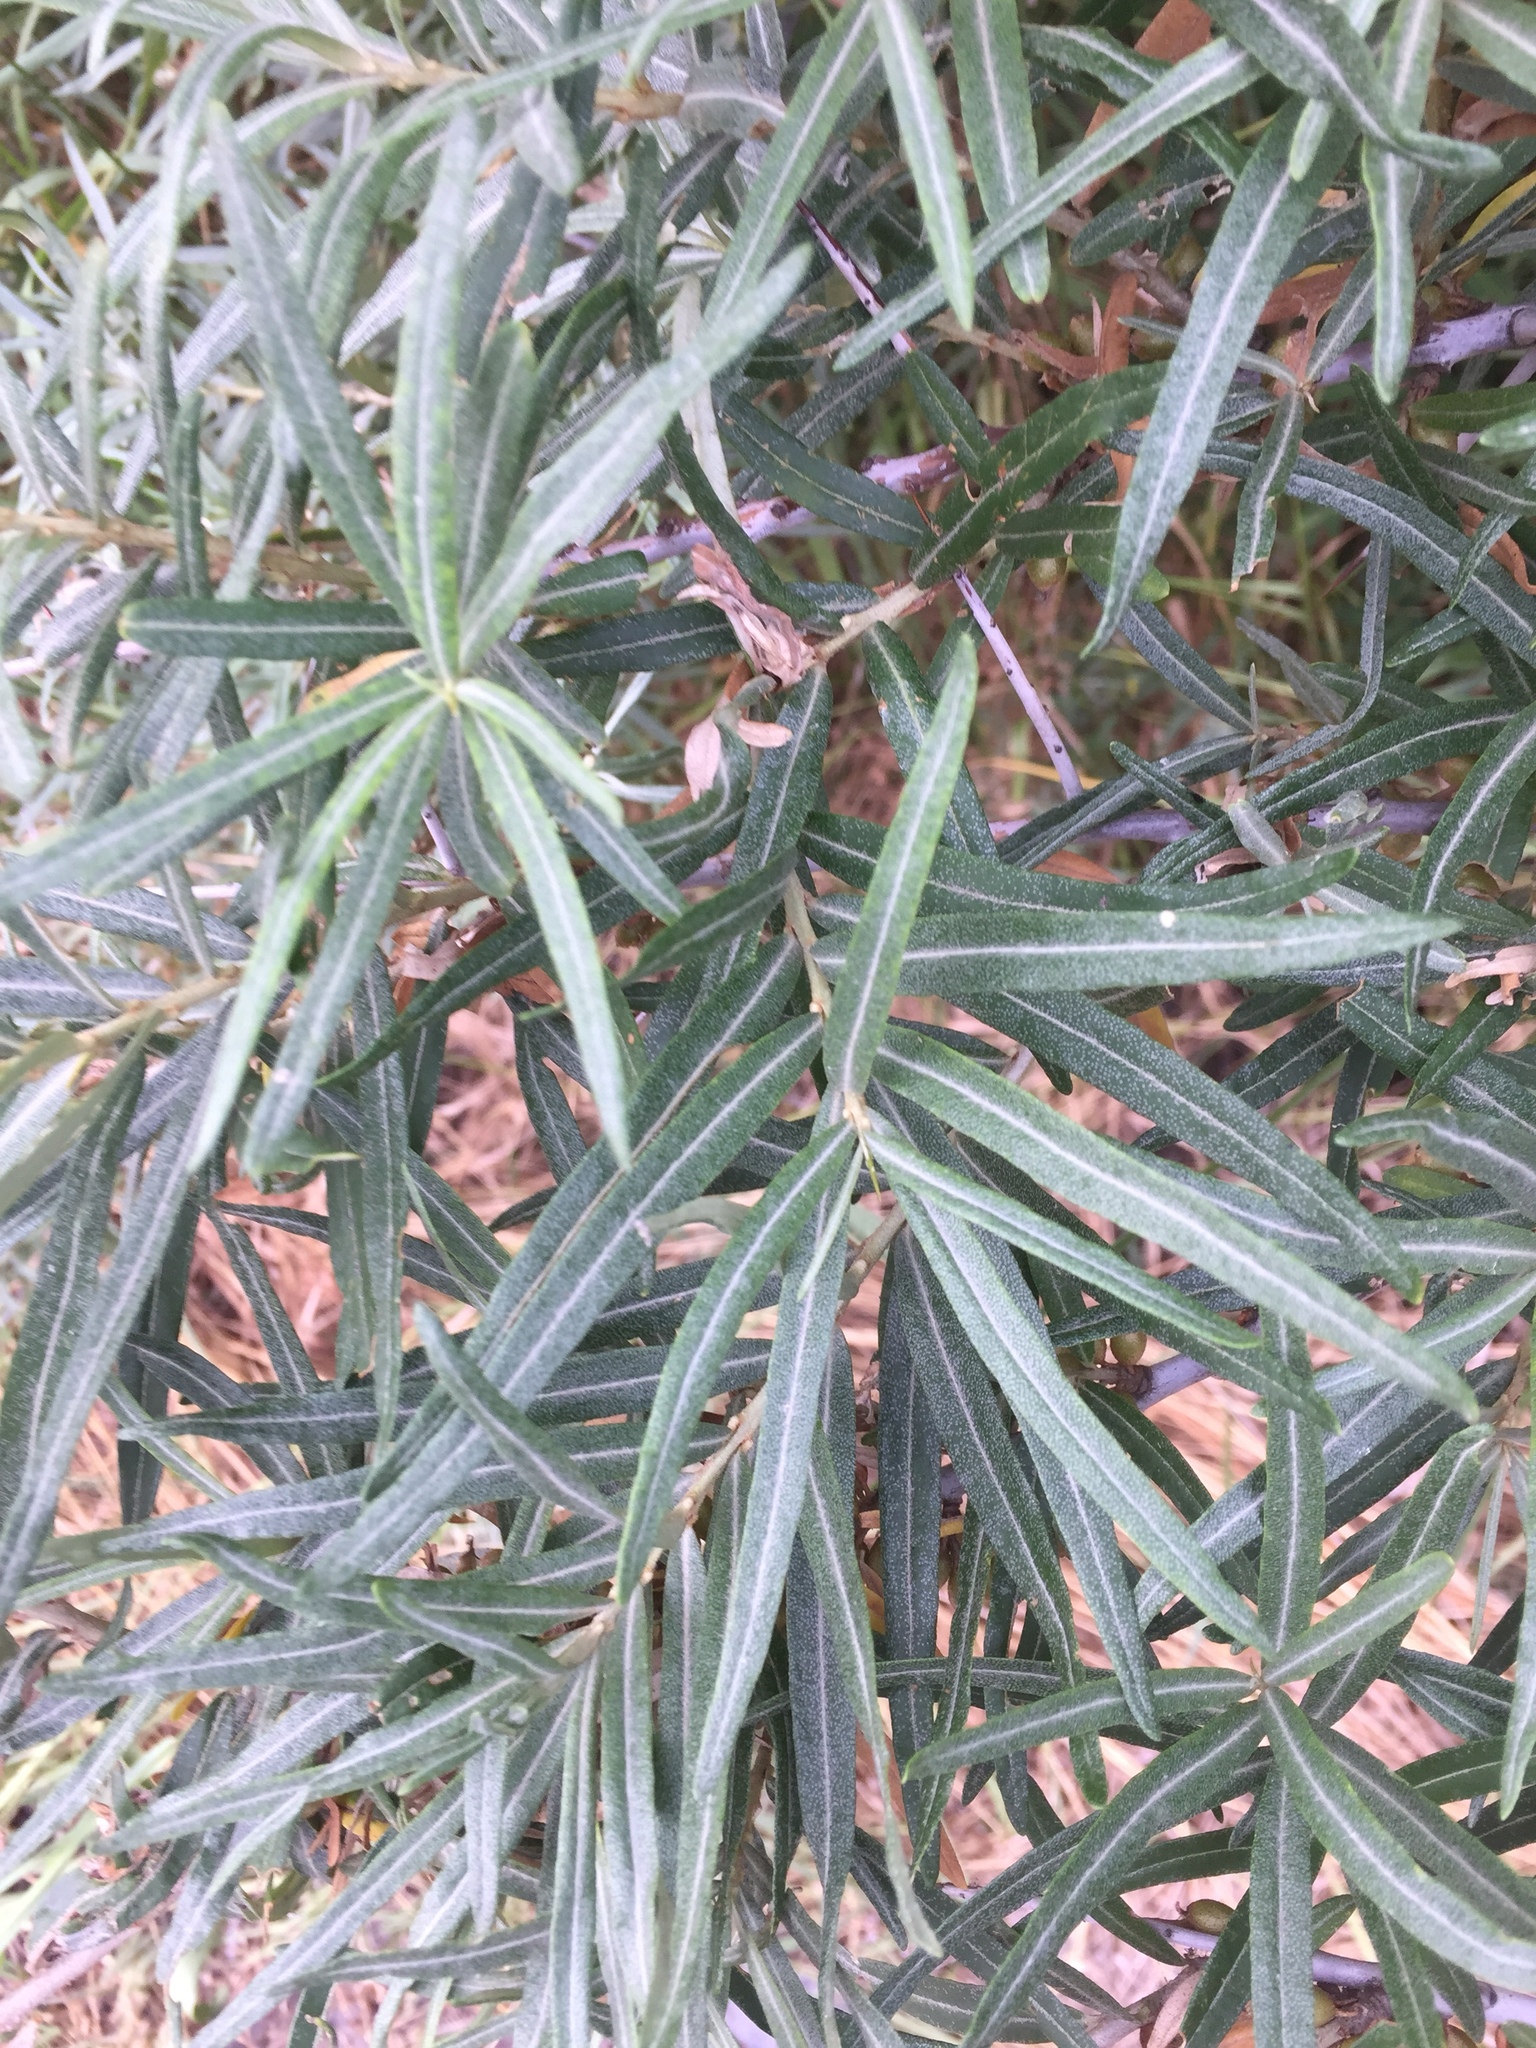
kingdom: Plantae
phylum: Tracheophyta
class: Magnoliopsida
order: Rosales
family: Elaeagnaceae
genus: Hippophae
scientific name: Hippophae rhamnoides
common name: Sea-buckthorn
